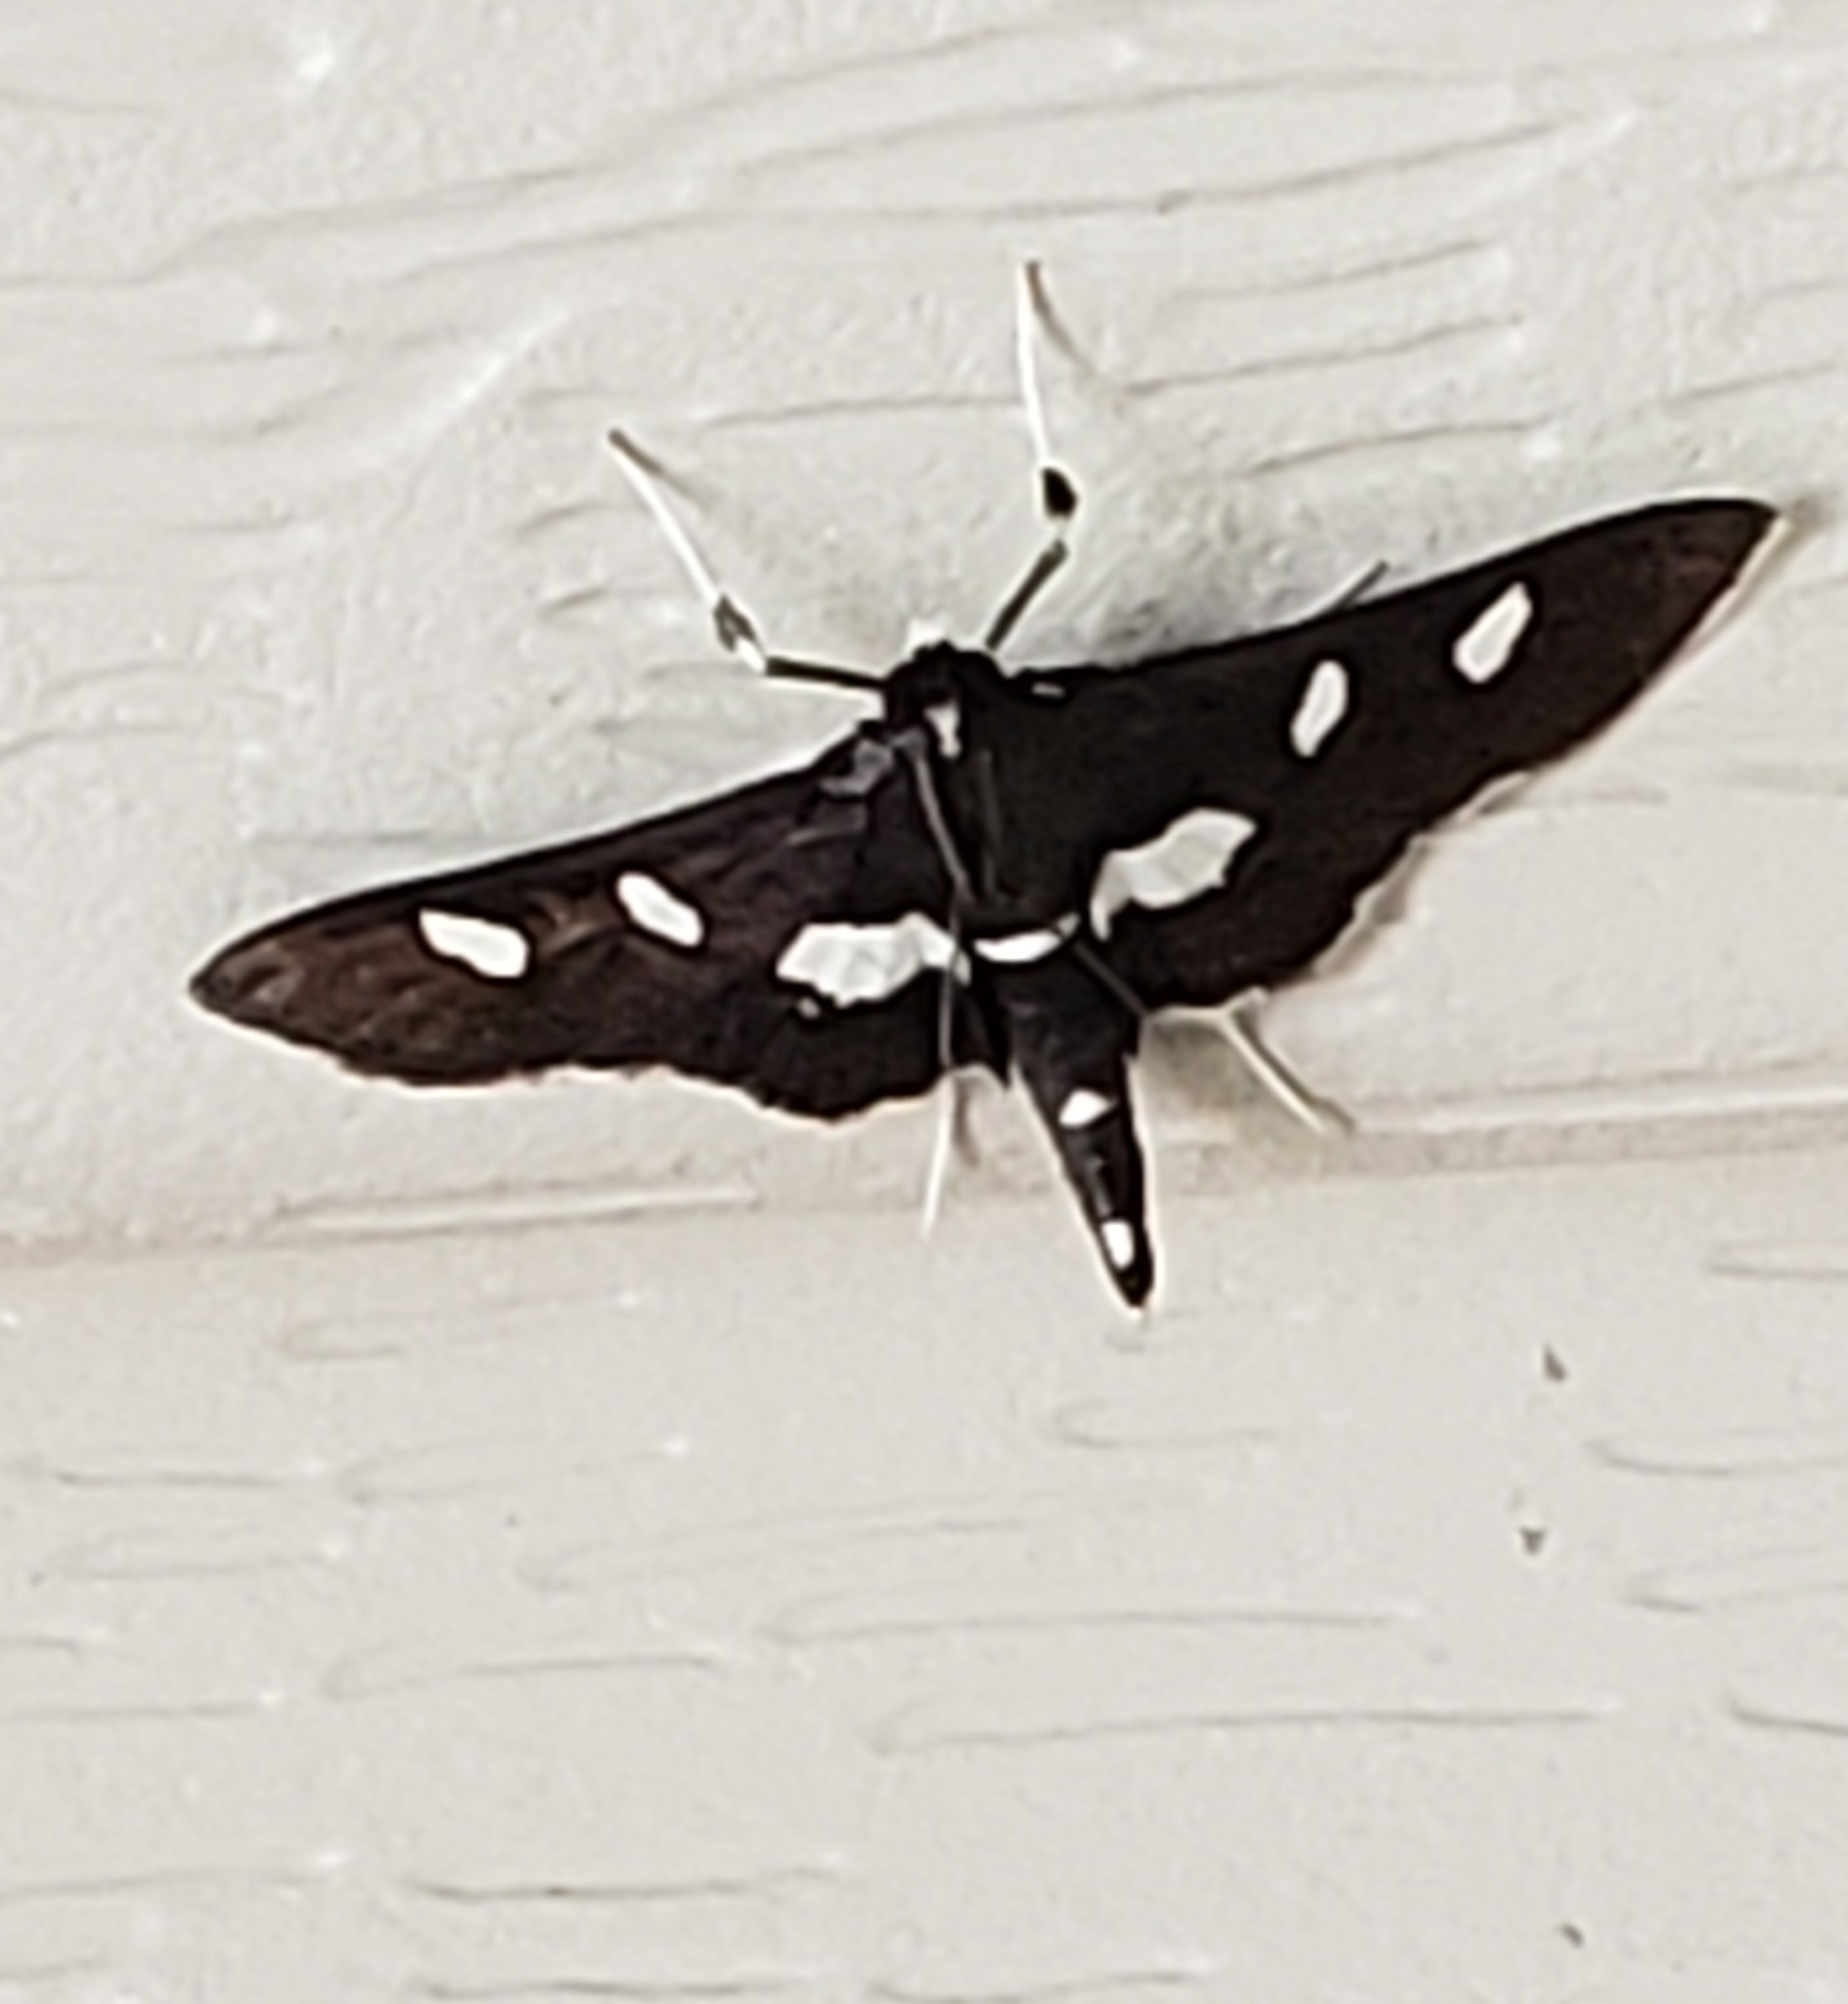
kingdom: Animalia
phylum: Arthropoda
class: Insecta
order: Lepidoptera
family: Crambidae
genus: Desmia
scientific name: Desmia
